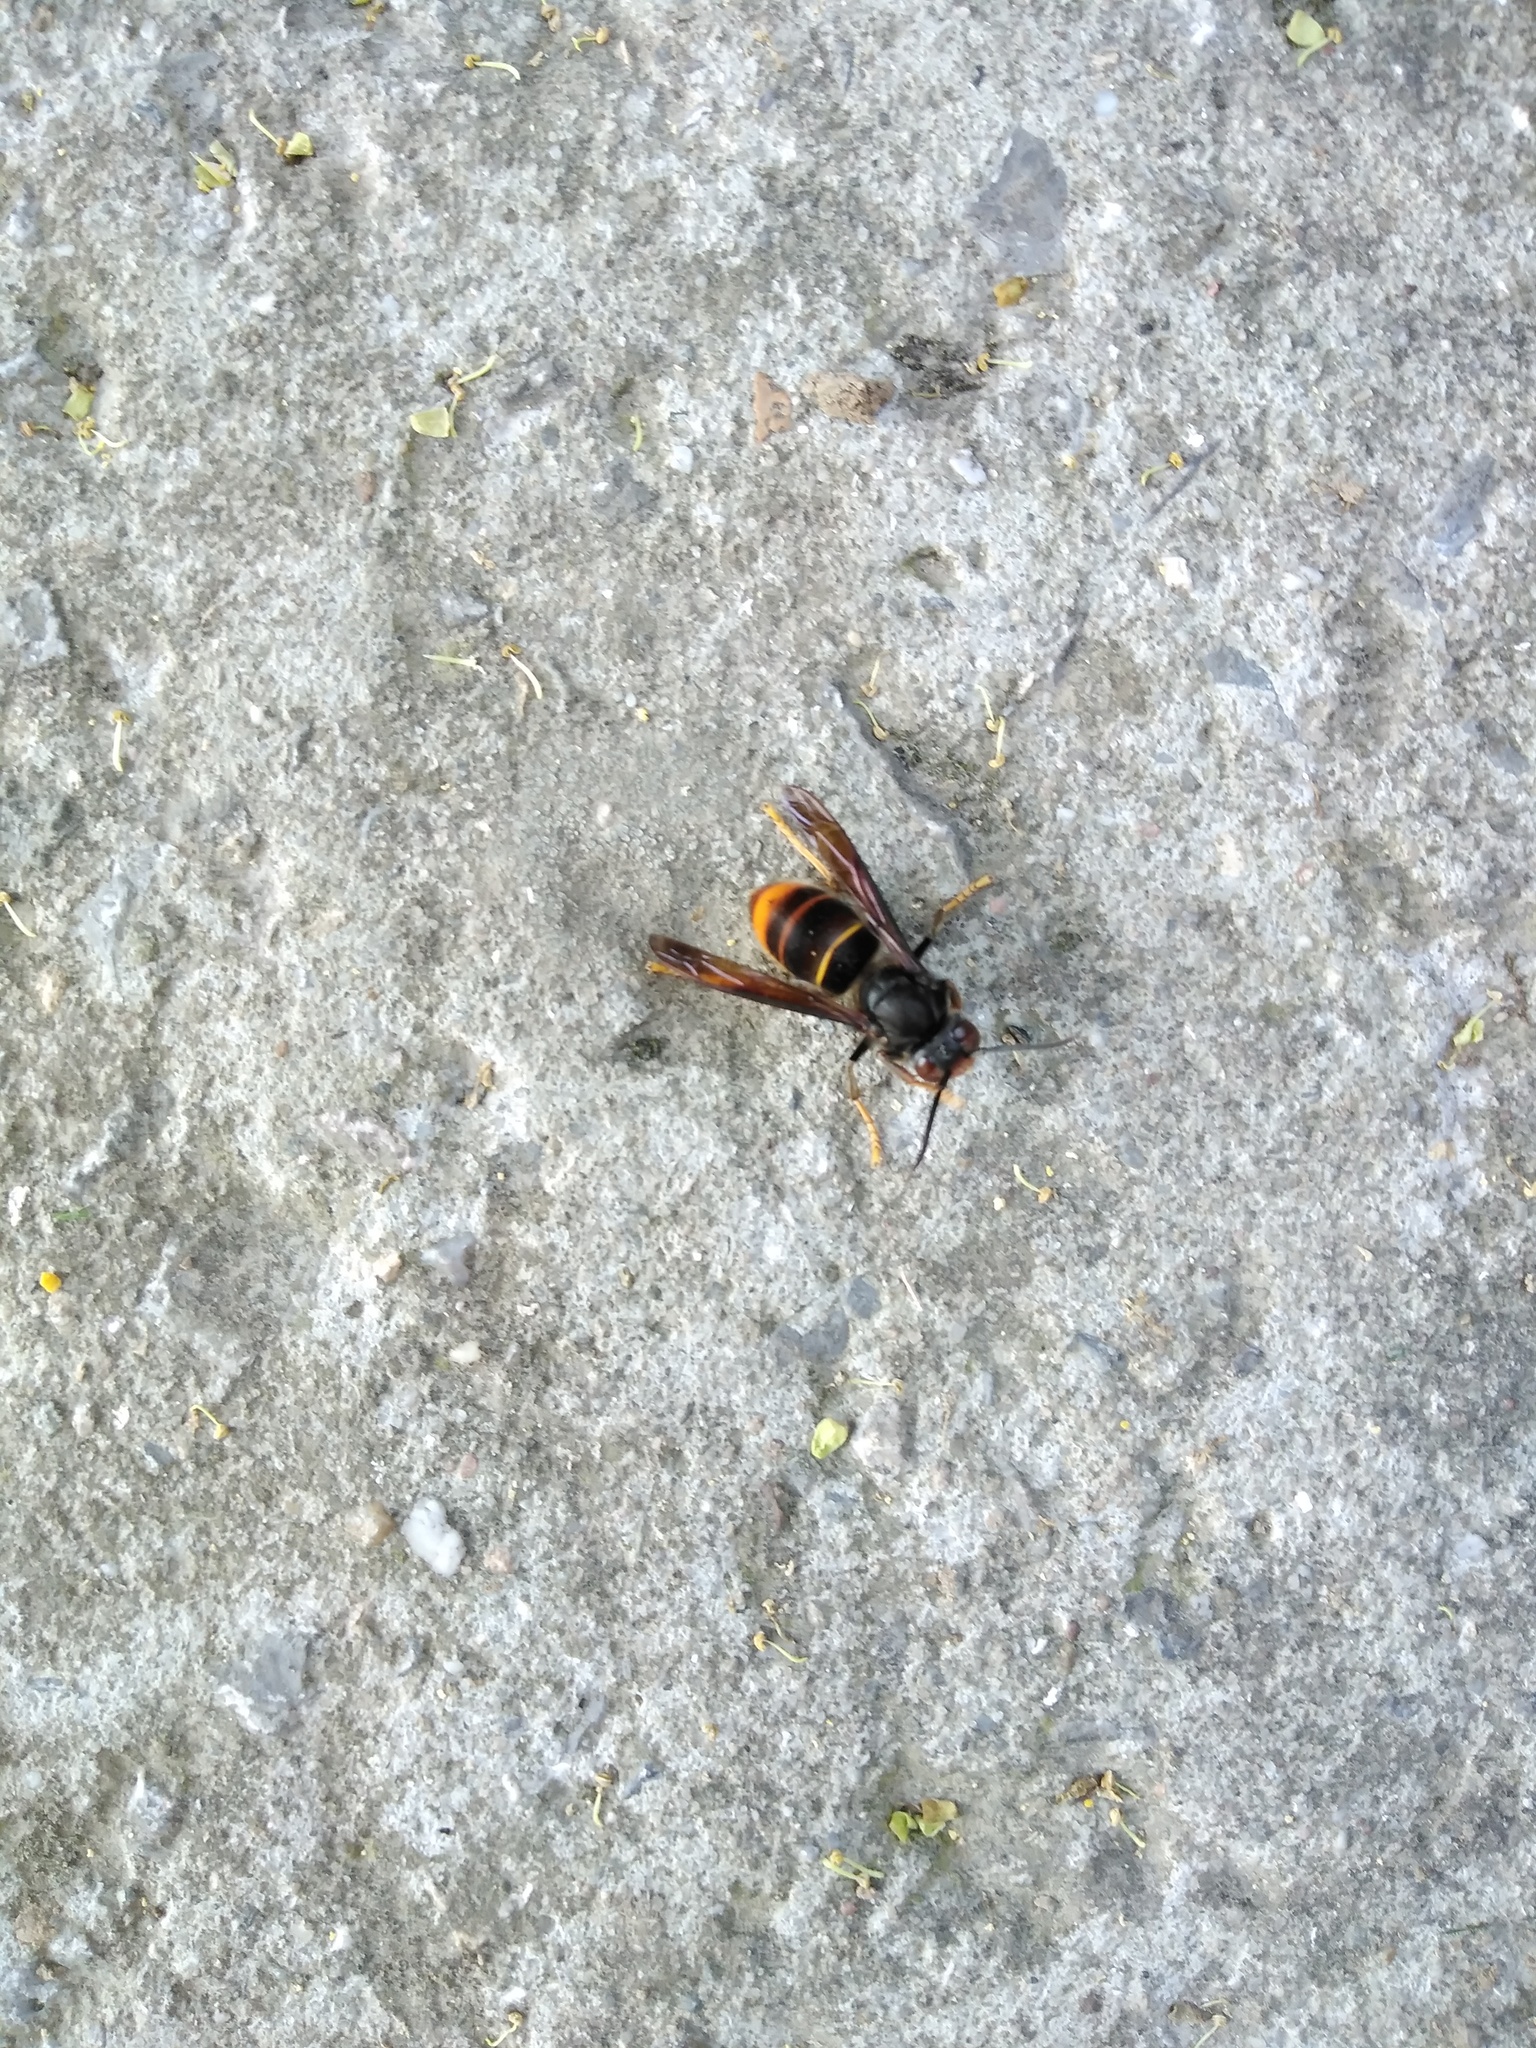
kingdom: Animalia
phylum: Arthropoda
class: Insecta
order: Hymenoptera
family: Vespidae
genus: Vespa
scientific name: Vespa velutina
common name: Asian hornet
